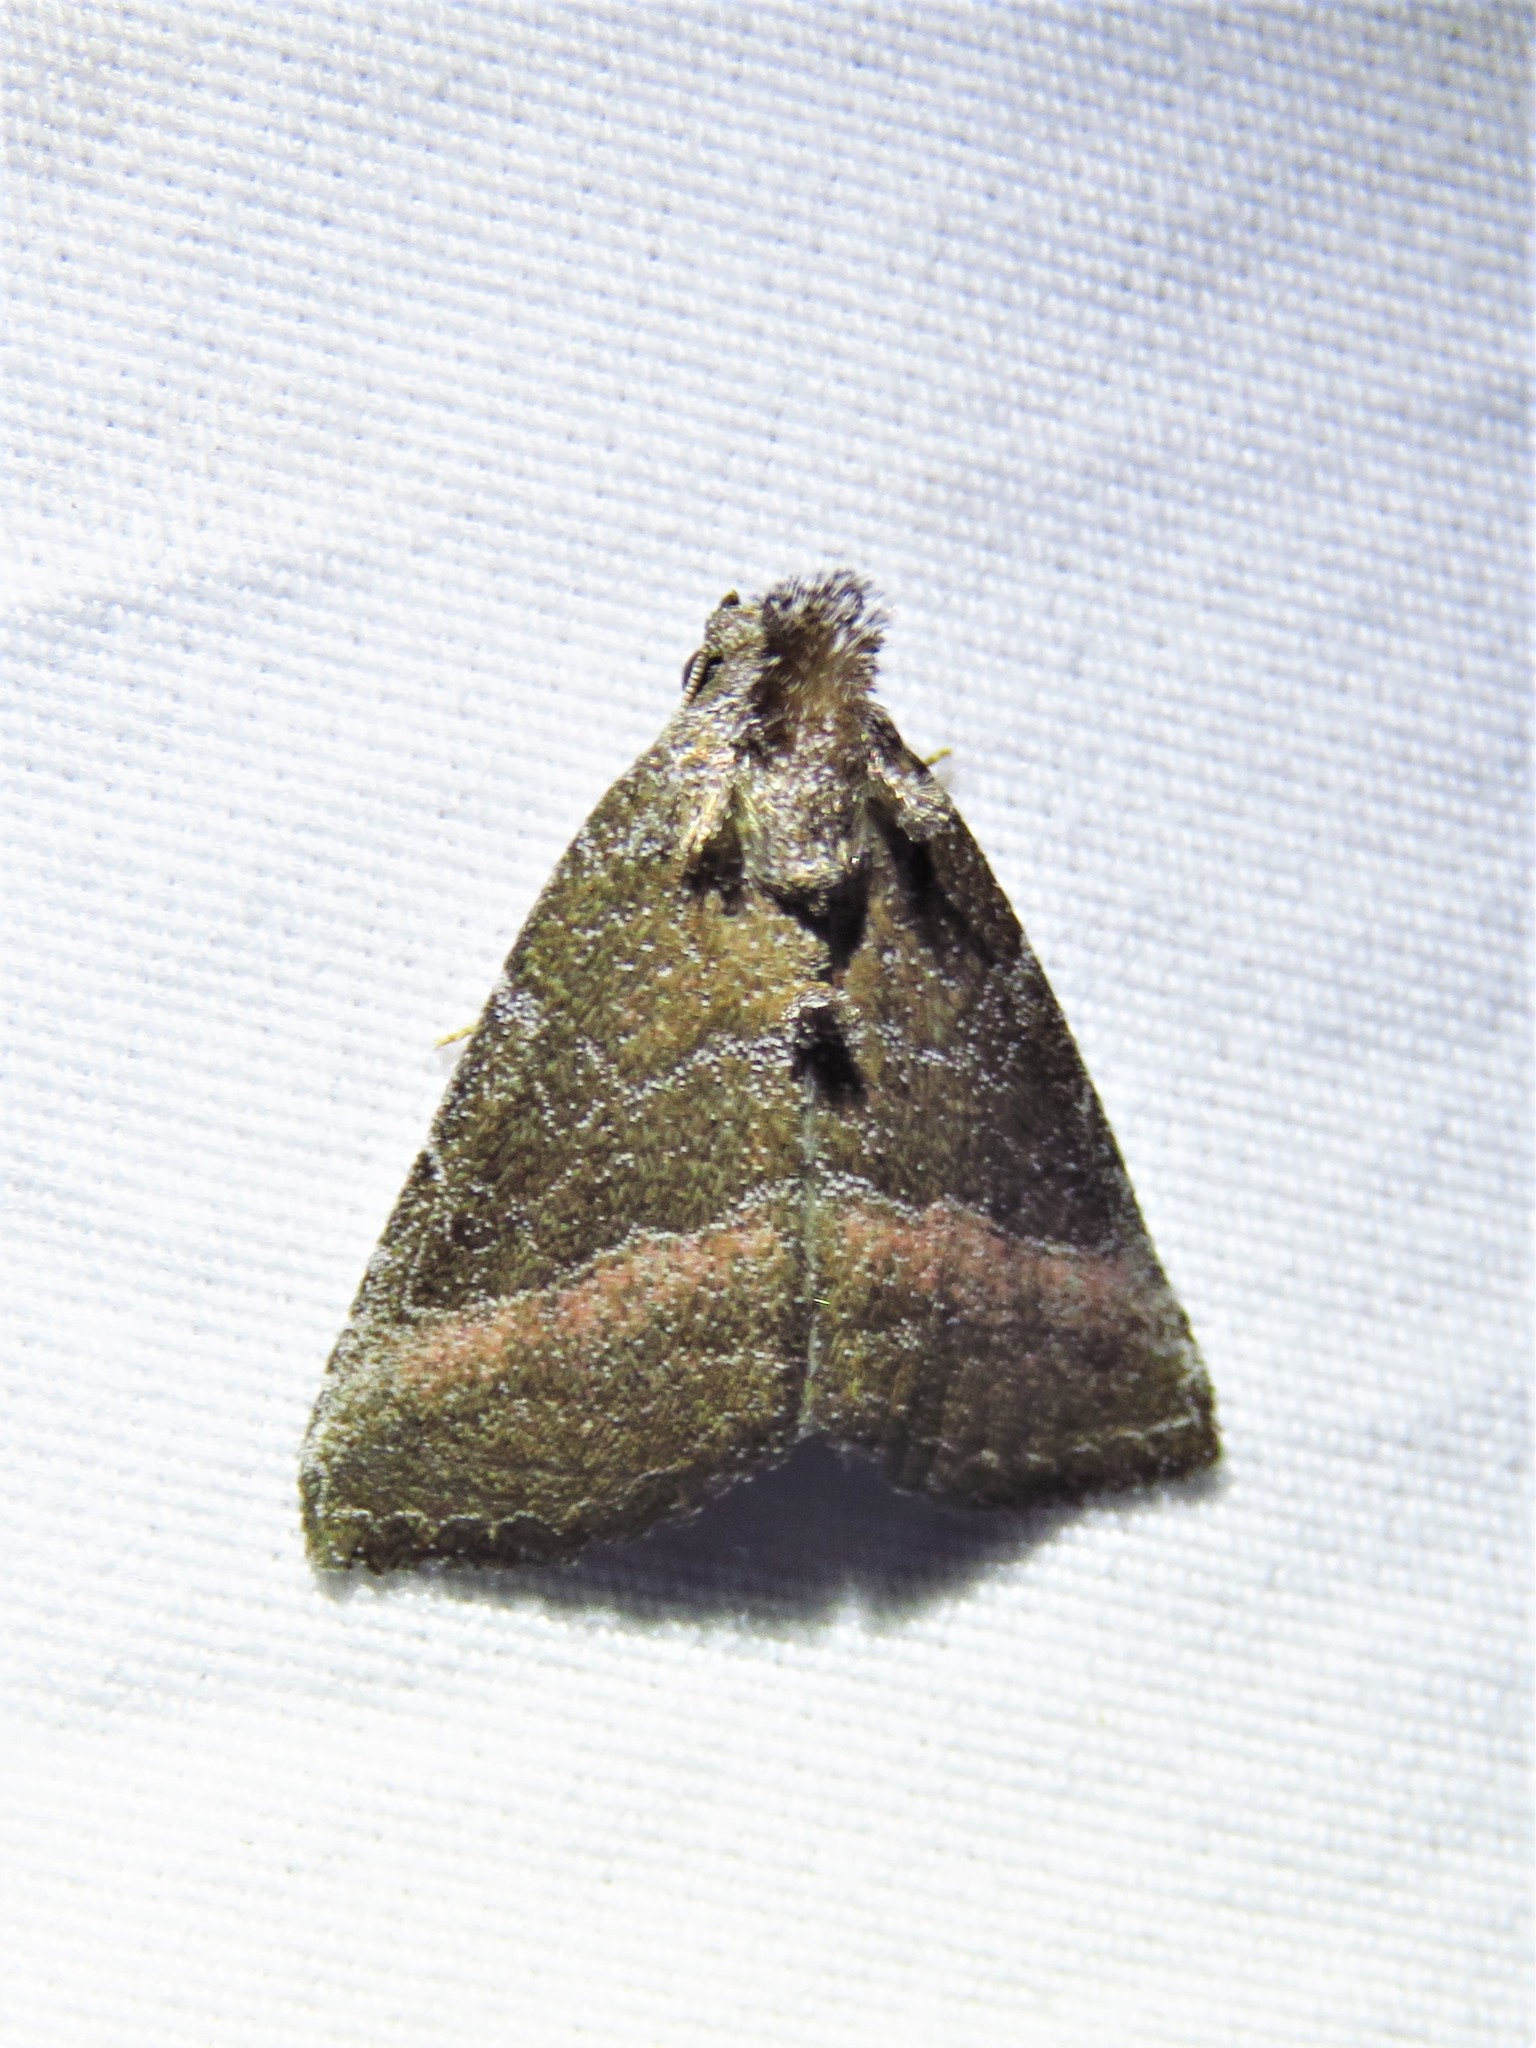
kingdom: Animalia
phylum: Arthropoda
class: Insecta
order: Lepidoptera
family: Noctuidae
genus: Ogdoconta
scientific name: Ogdoconta cinereola
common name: Common pinkband
